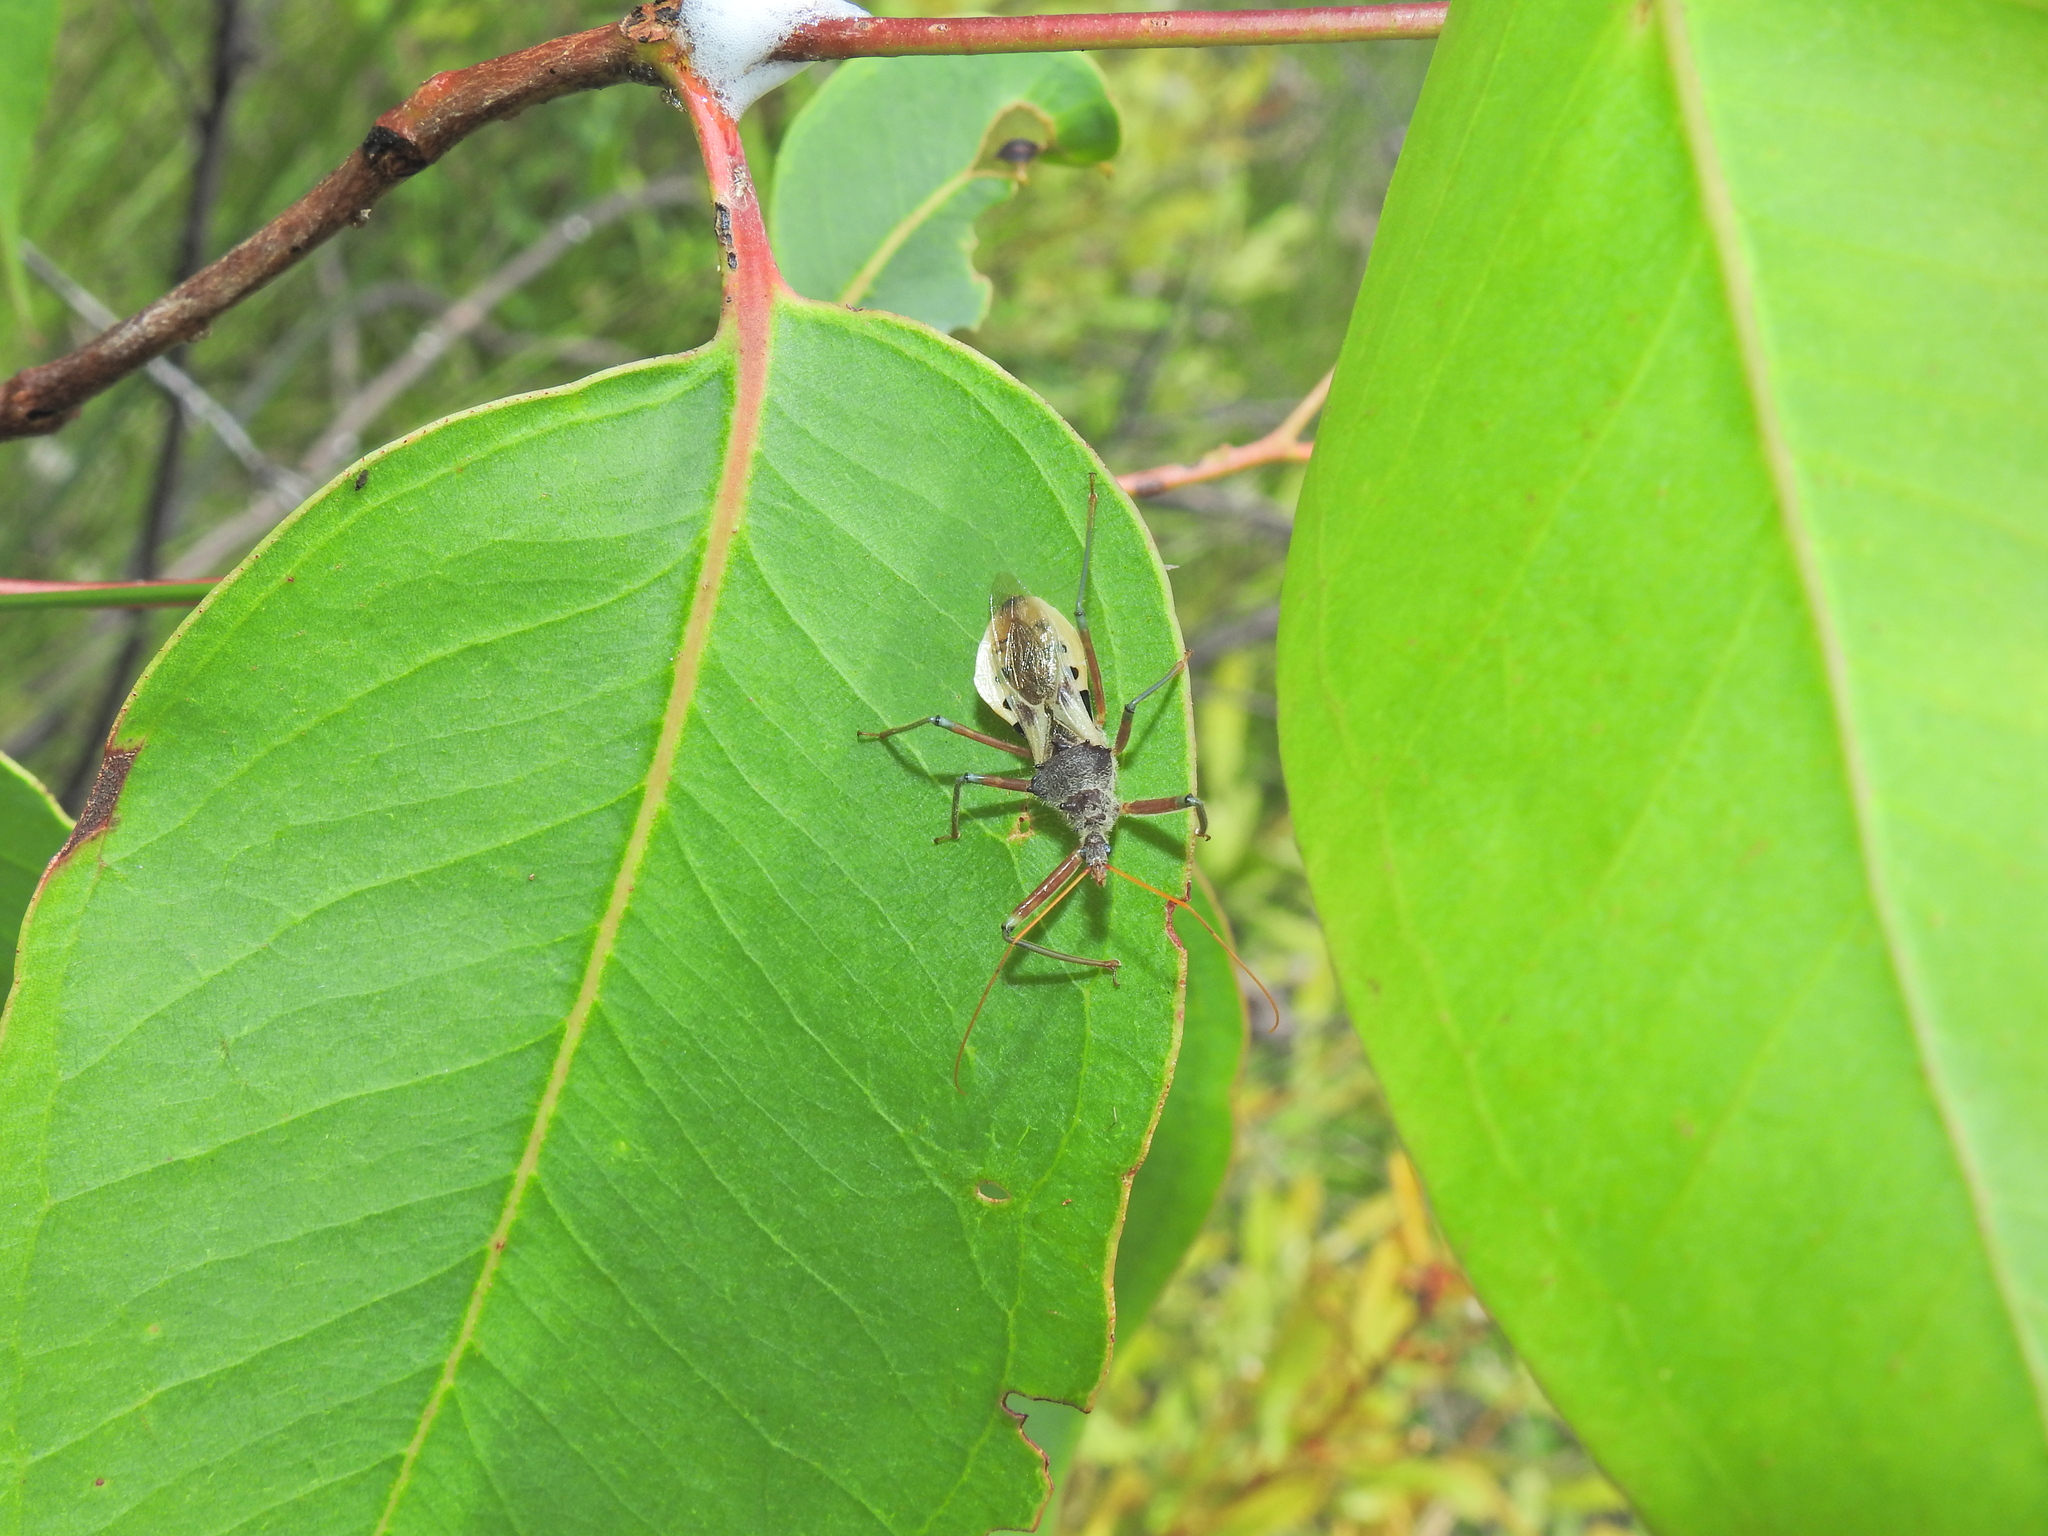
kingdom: Animalia
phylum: Arthropoda
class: Insecta
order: Hemiptera
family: Reduviidae
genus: Pristhesancus
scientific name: Pristhesancus plagipennis
